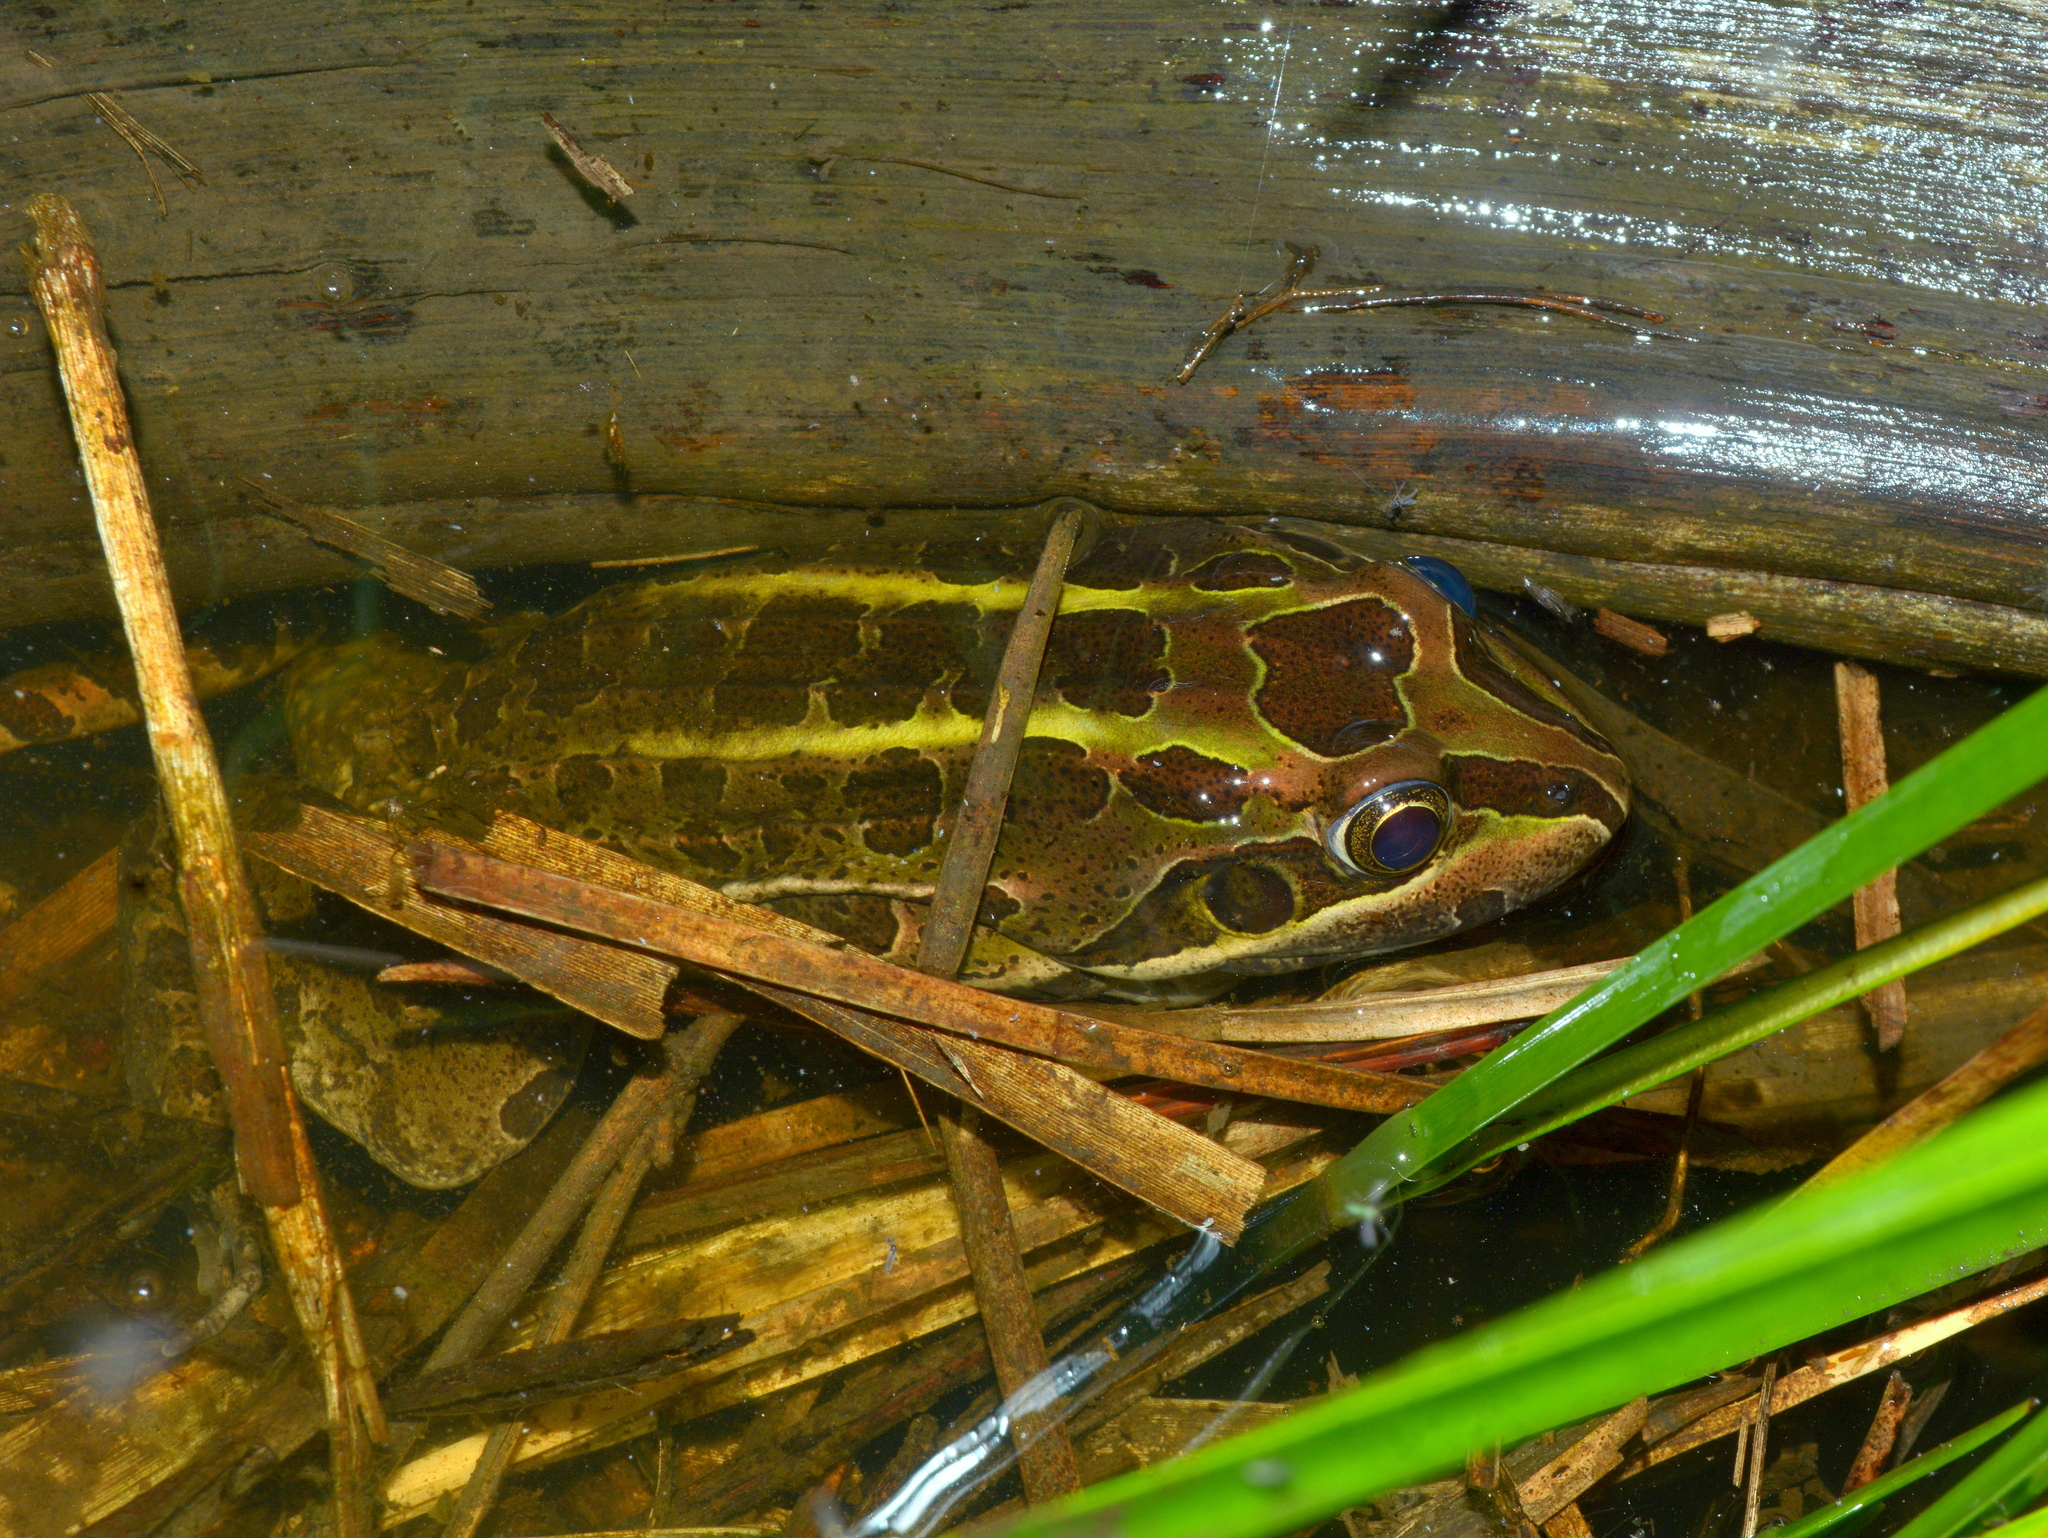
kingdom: Animalia
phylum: Chordata
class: Amphibia
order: Anura
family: Leptodactylidae
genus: Leptodactylus
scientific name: Leptodactylus luctator
